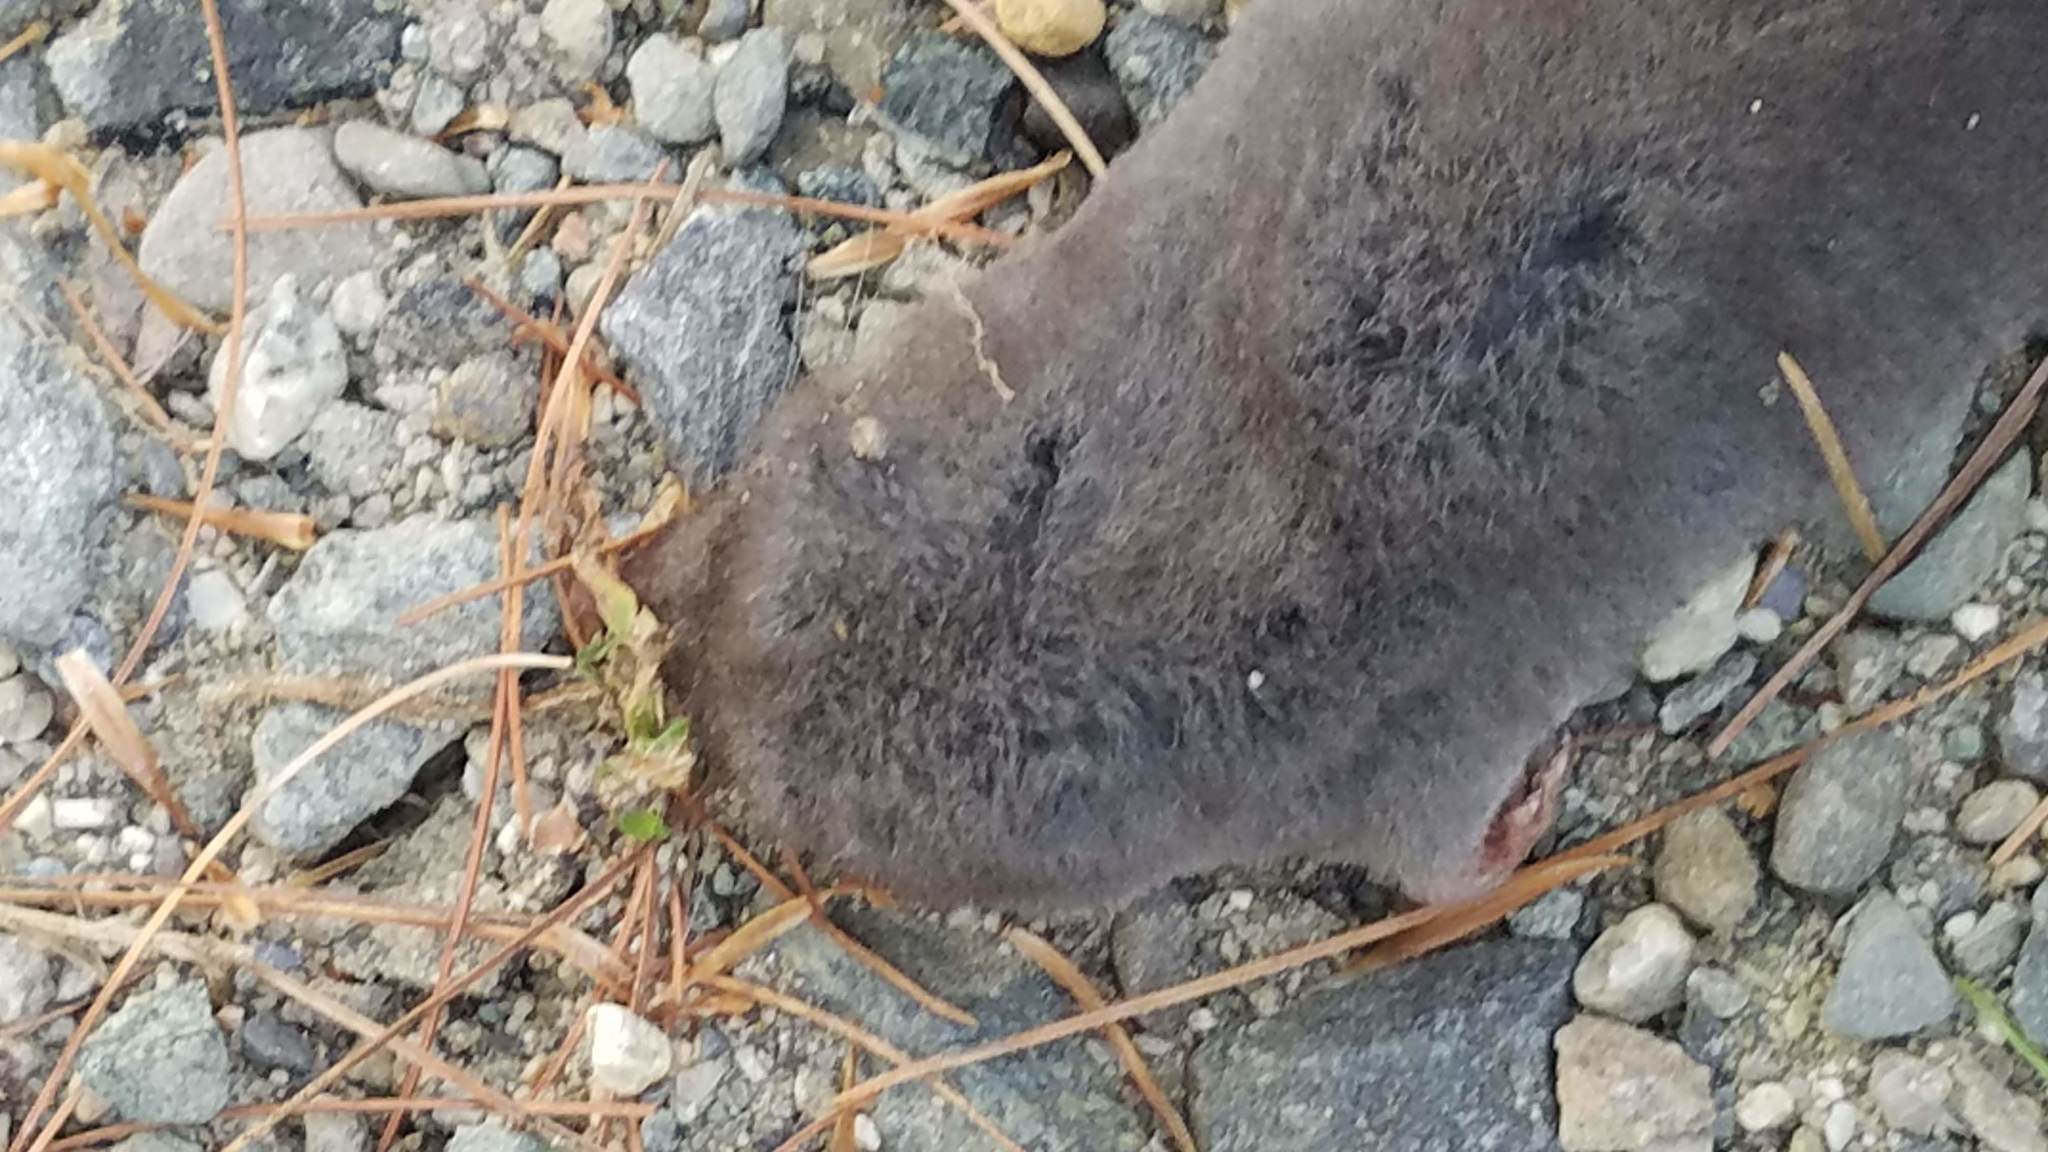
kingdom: Animalia
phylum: Chordata
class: Mammalia
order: Soricomorpha
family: Soricidae
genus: Blarina
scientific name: Blarina brevicauda
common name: Northern short-tailed shrew
